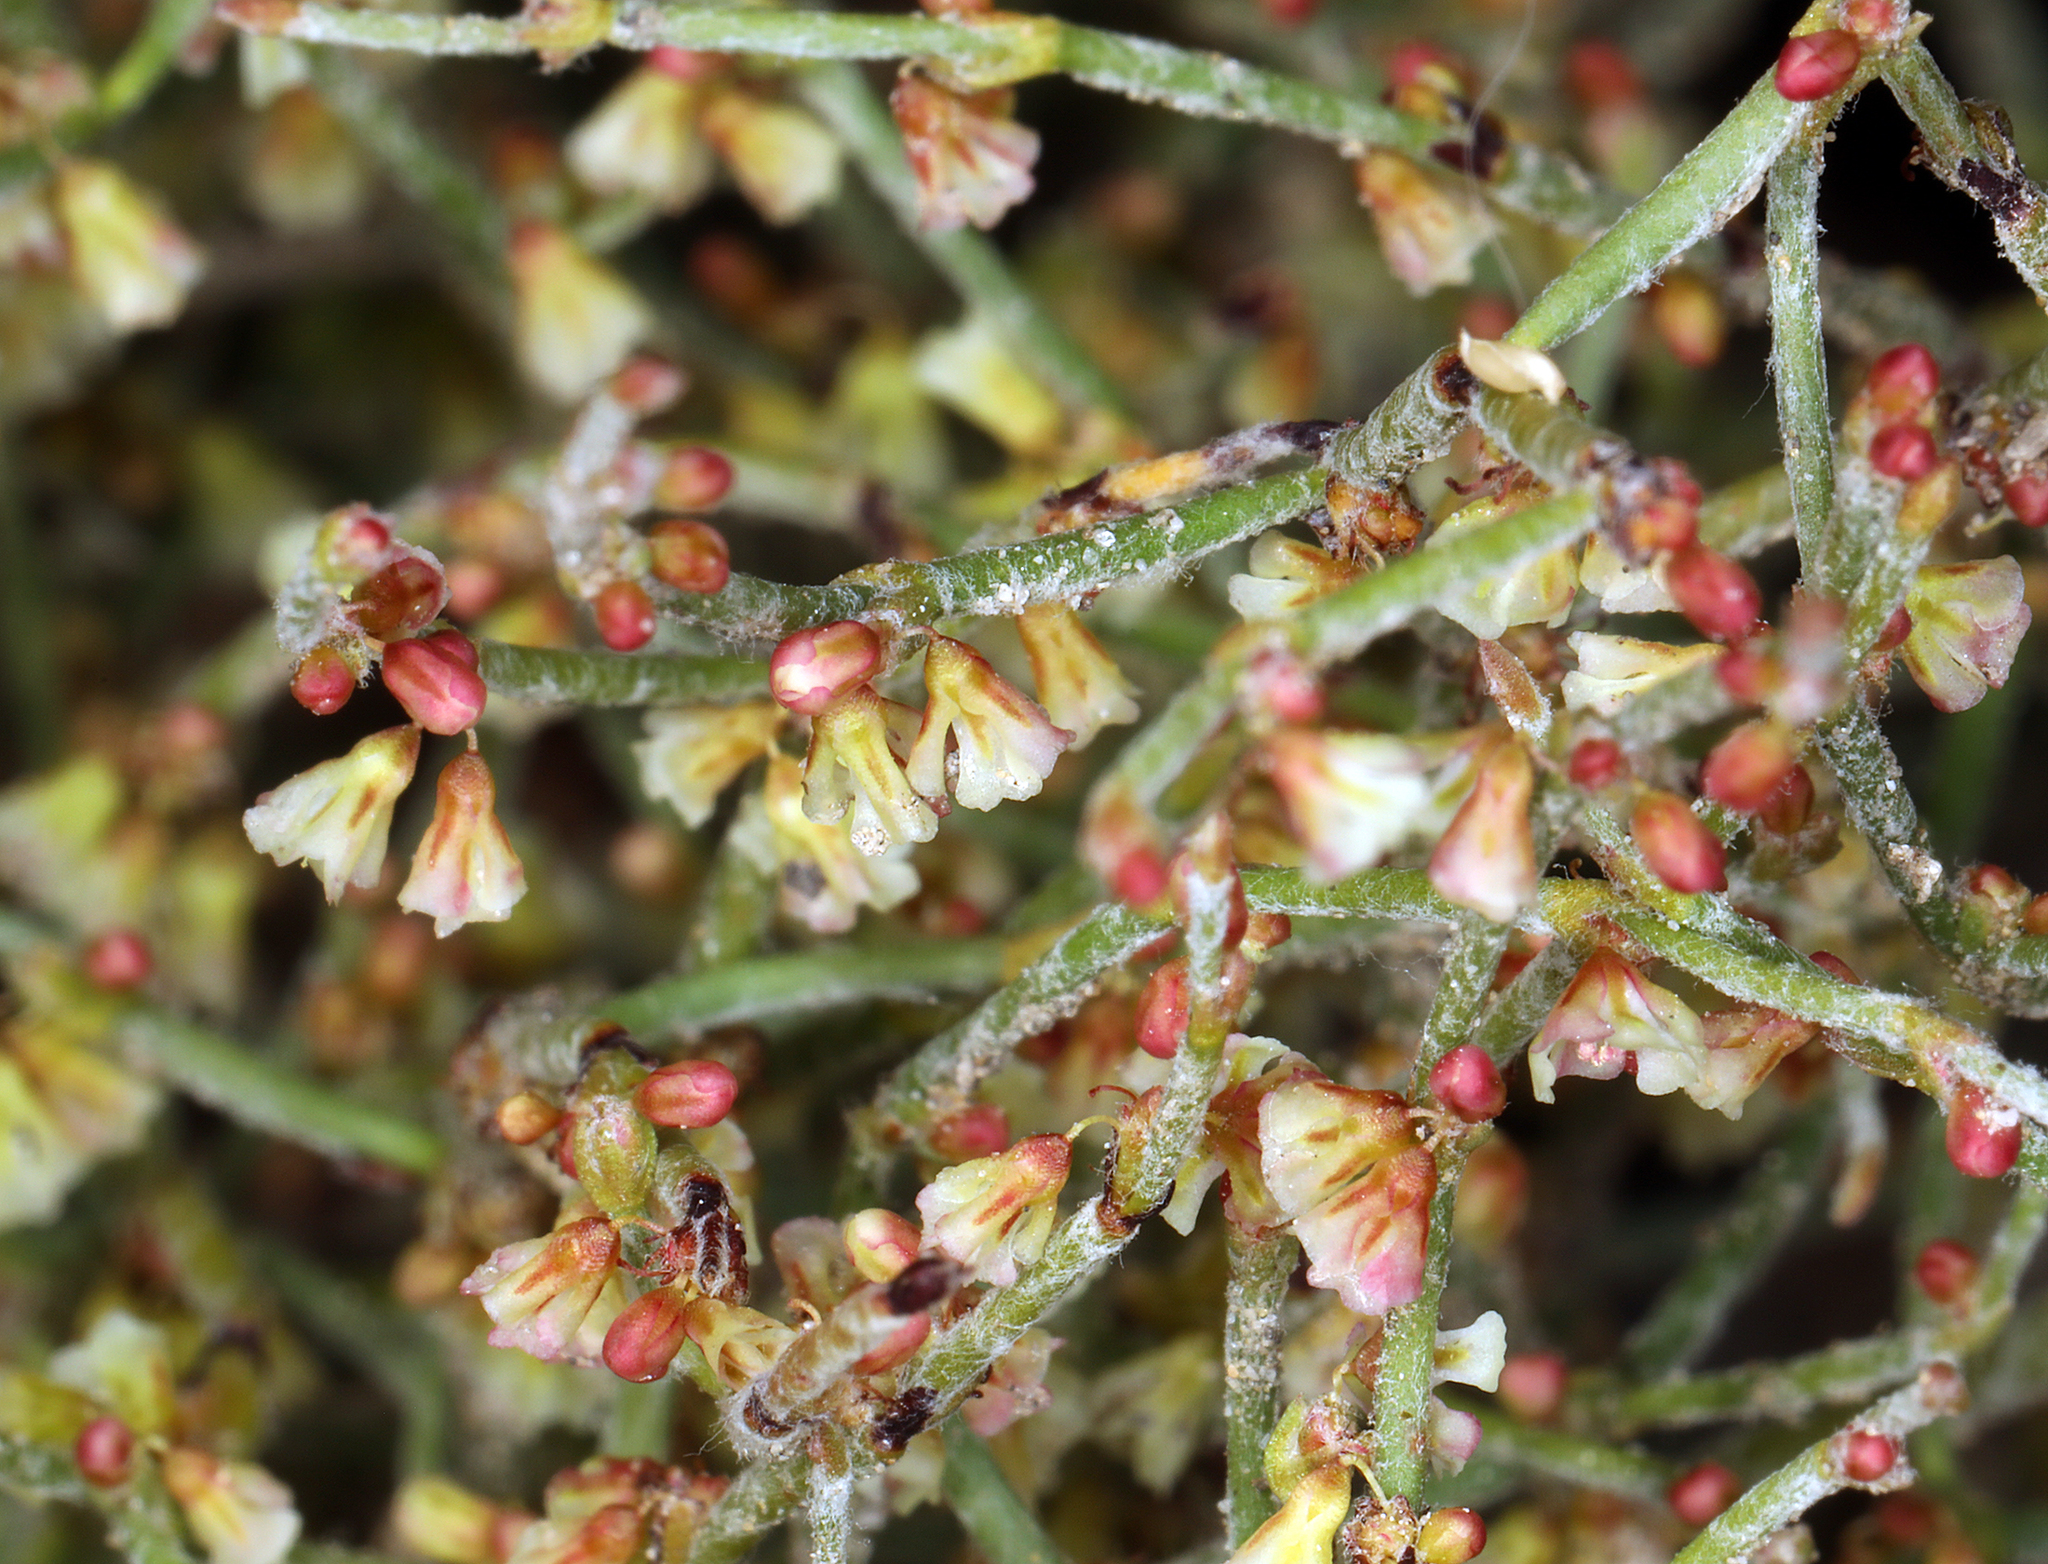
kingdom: Plantae
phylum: Tracheophyta
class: Magnoliopsida
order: Caryophyllales
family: Polygonaceae
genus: Eriogonum
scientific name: Eriogonum nidularium
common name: Bird's-nest wild buckwheat
